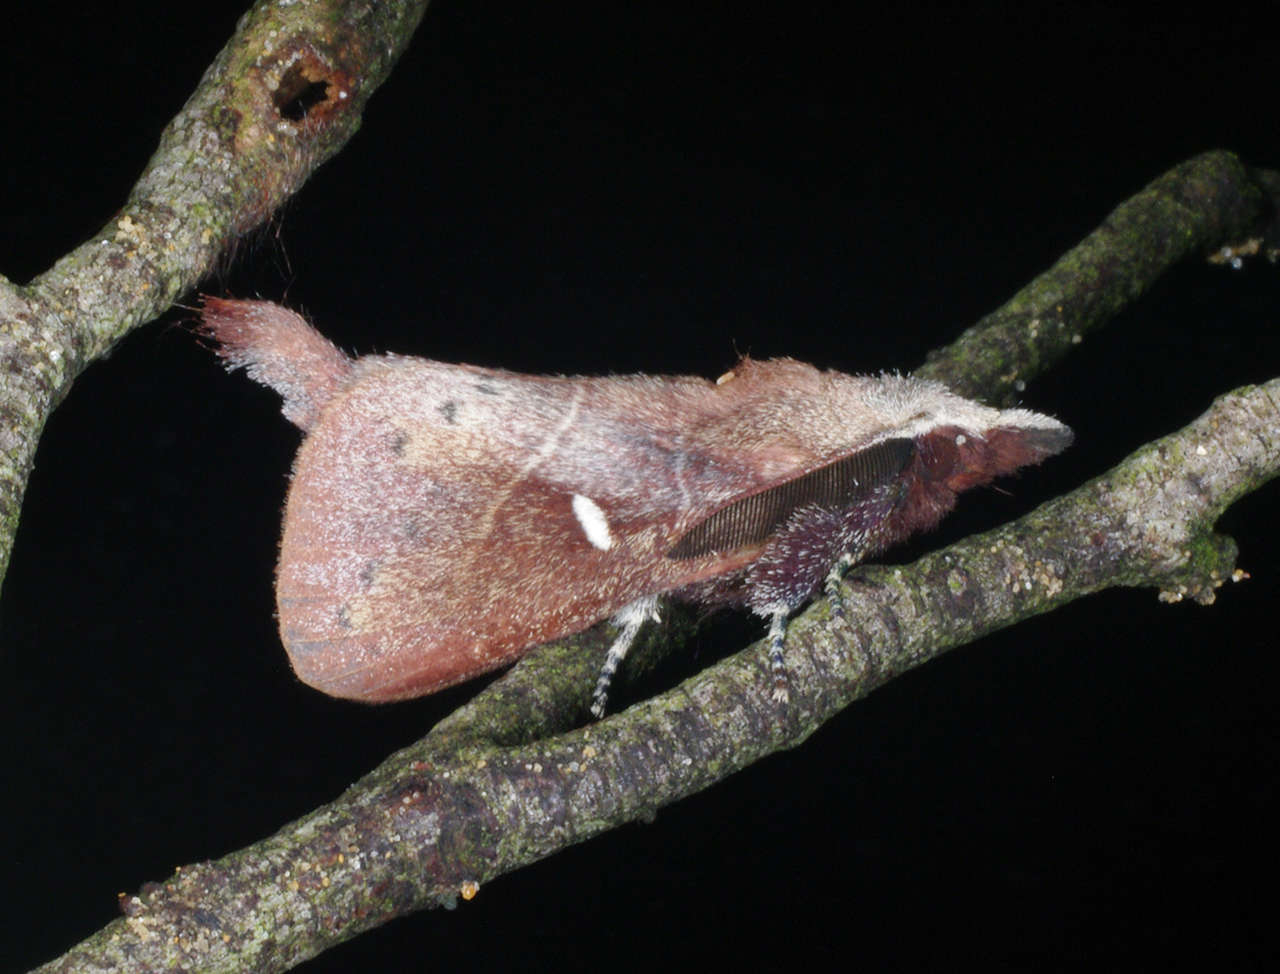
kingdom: Animalia
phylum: Arthropoda
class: Insecta
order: Lepidoptera
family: Lasiocampidae
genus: Opsirhina
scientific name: Opsirhina albigutta
